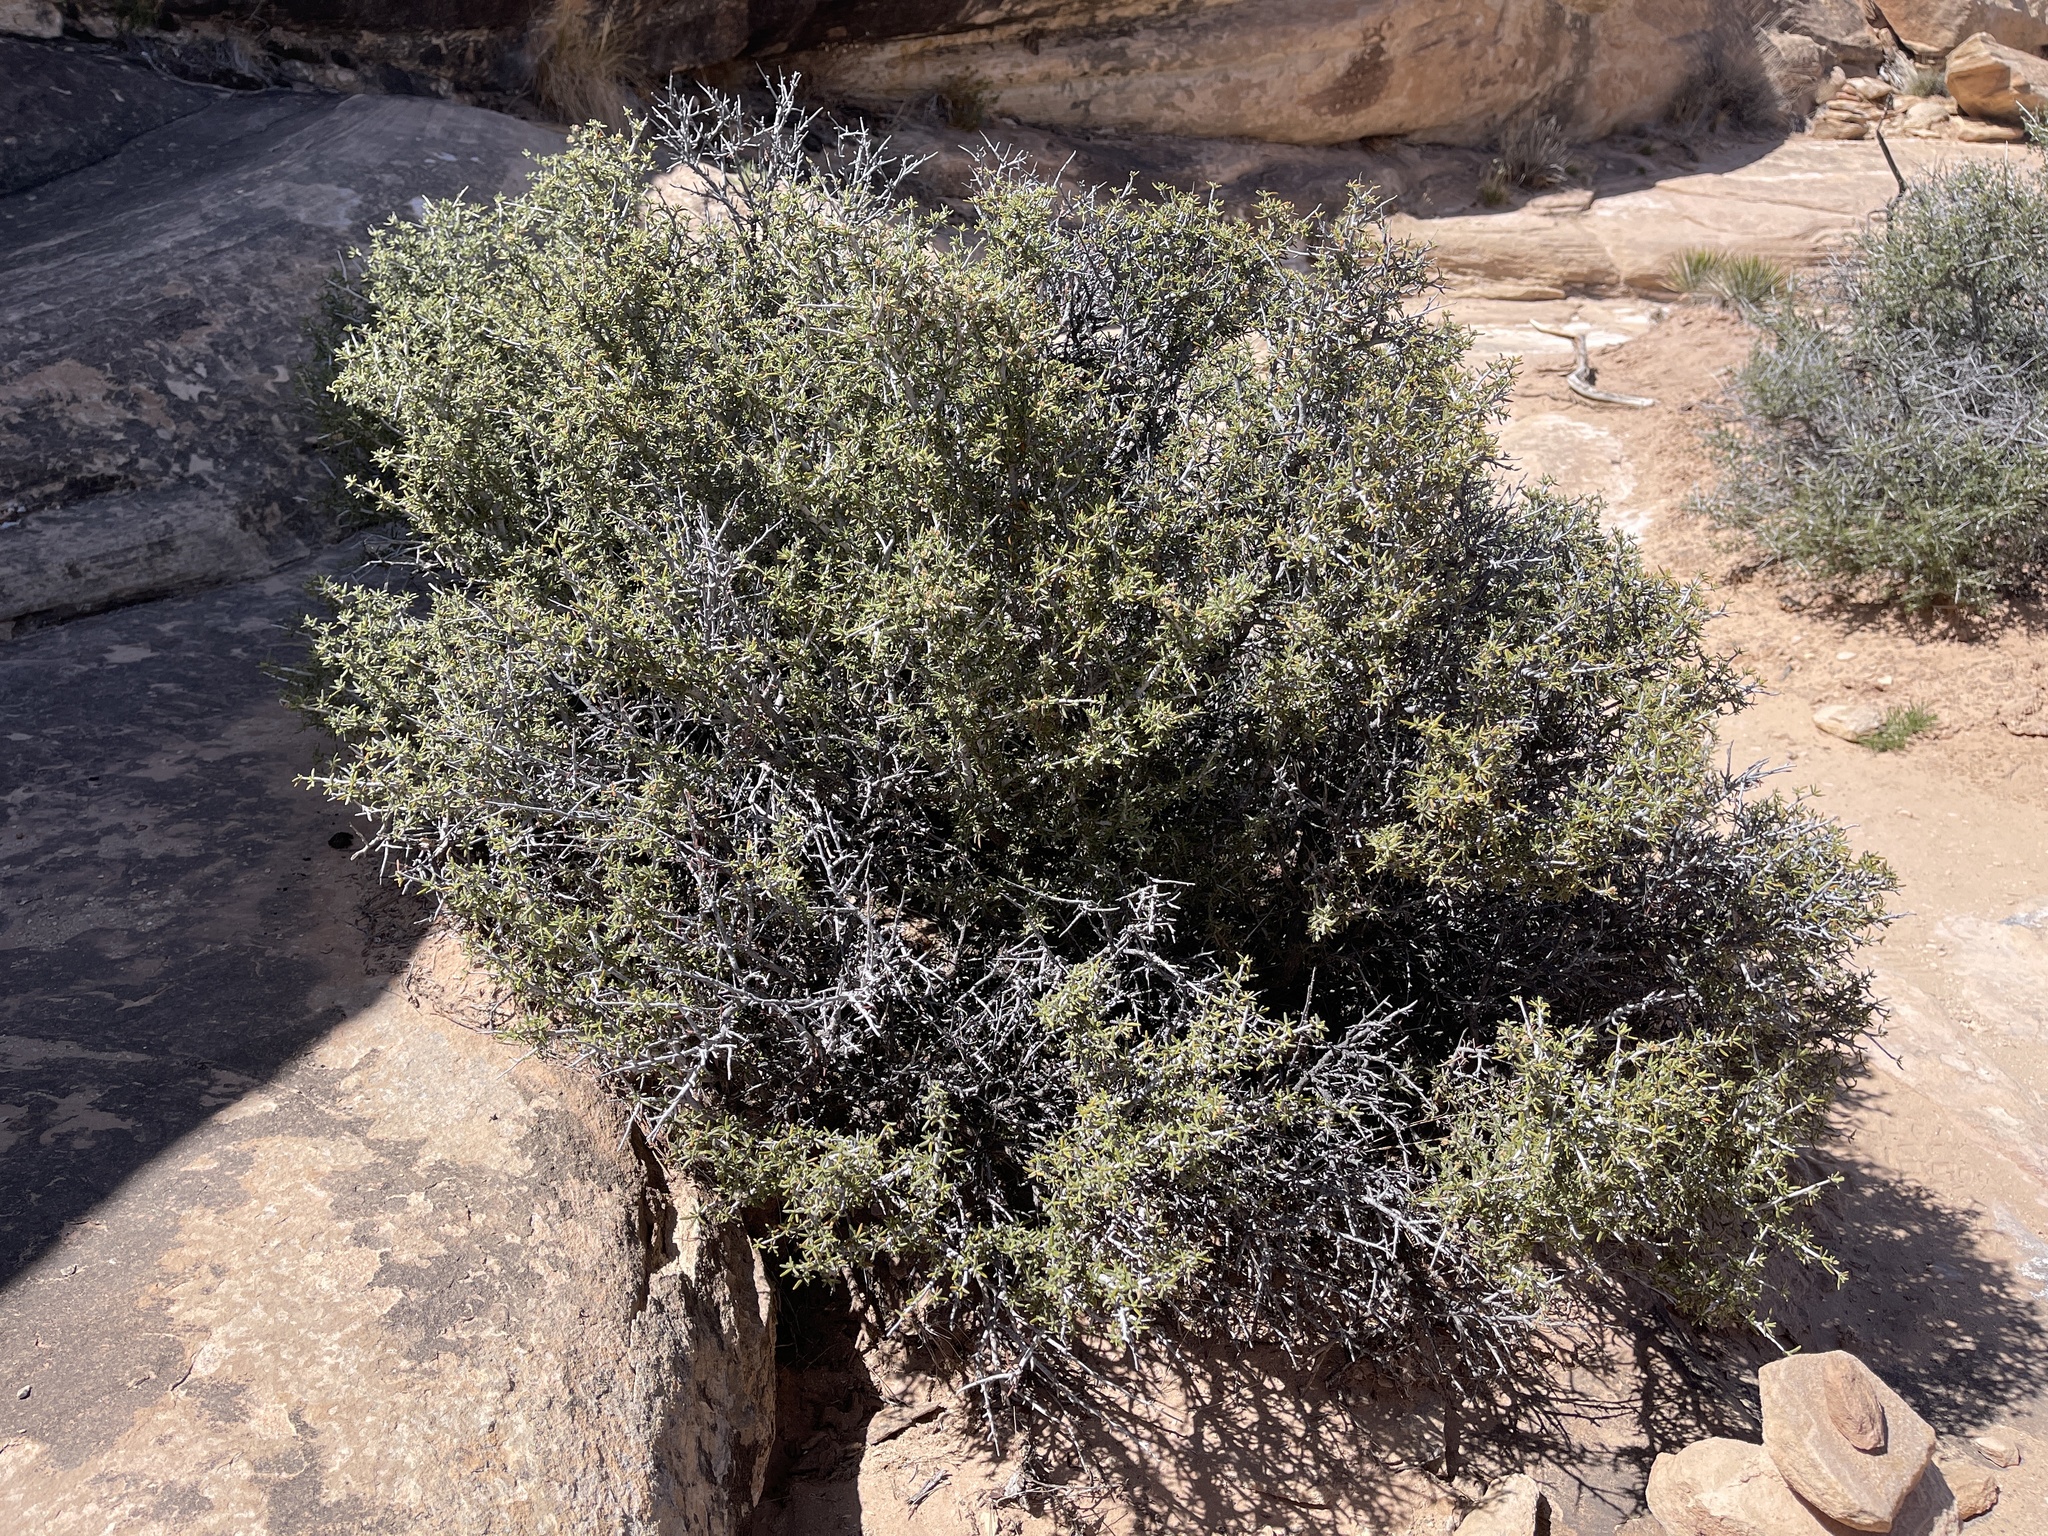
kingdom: Plantae
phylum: Tracheophyta
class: Magnoliopsida
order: Rosales
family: Rosaceae
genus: Cercocarpus
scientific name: Cercocarpus intricatus
